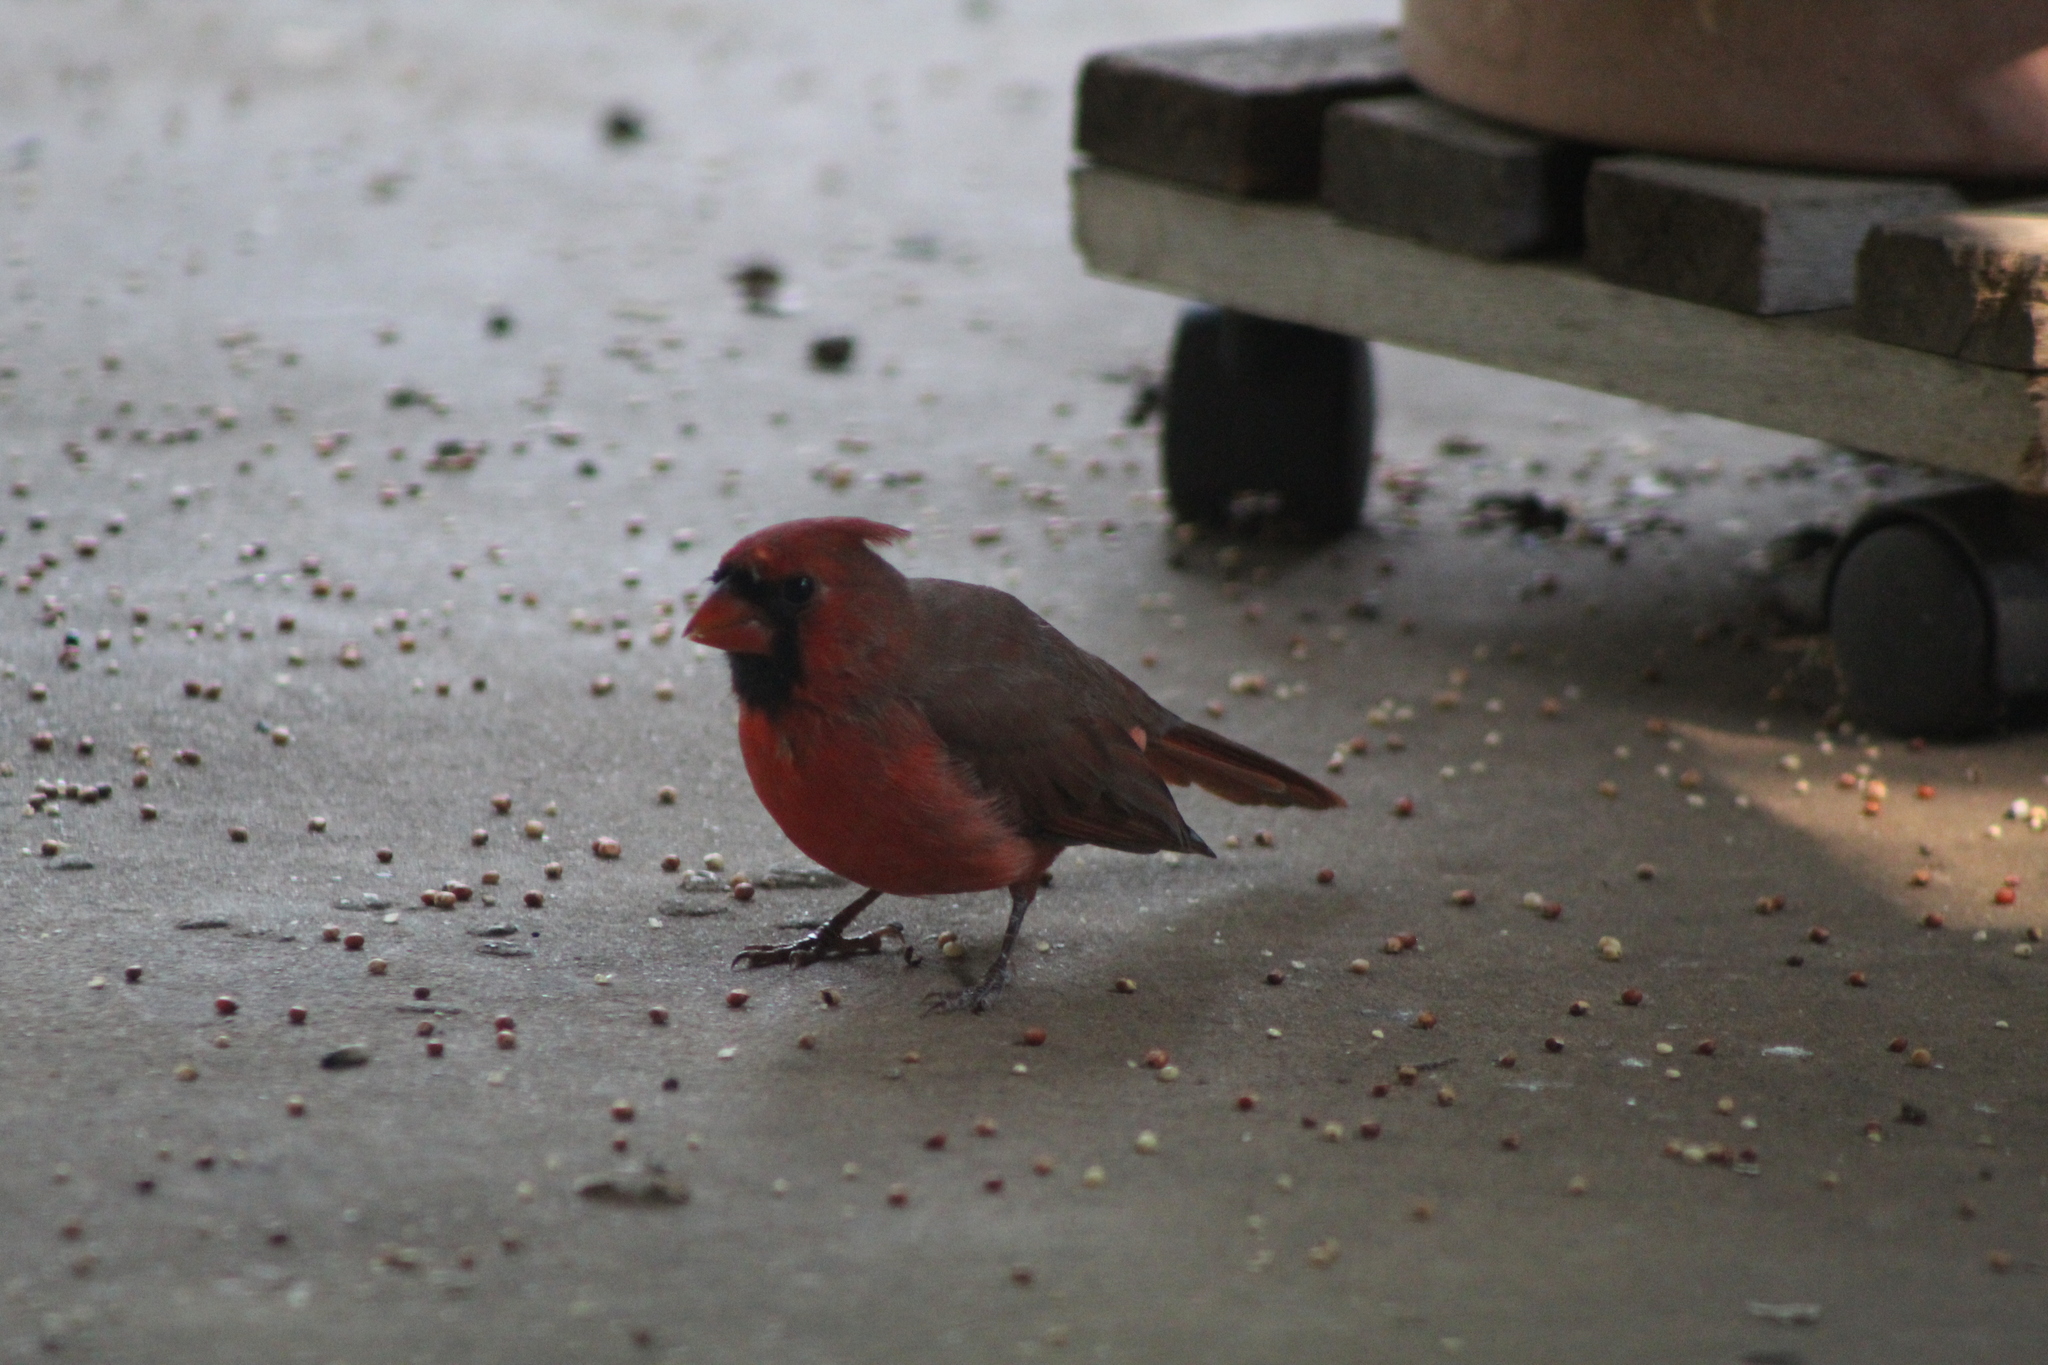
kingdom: Animalia
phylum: Chordata
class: Aves
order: Passeriformes
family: Cardinalidae
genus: Cardinalis
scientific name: Cardinalis cardinalis
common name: Northern cardinal
